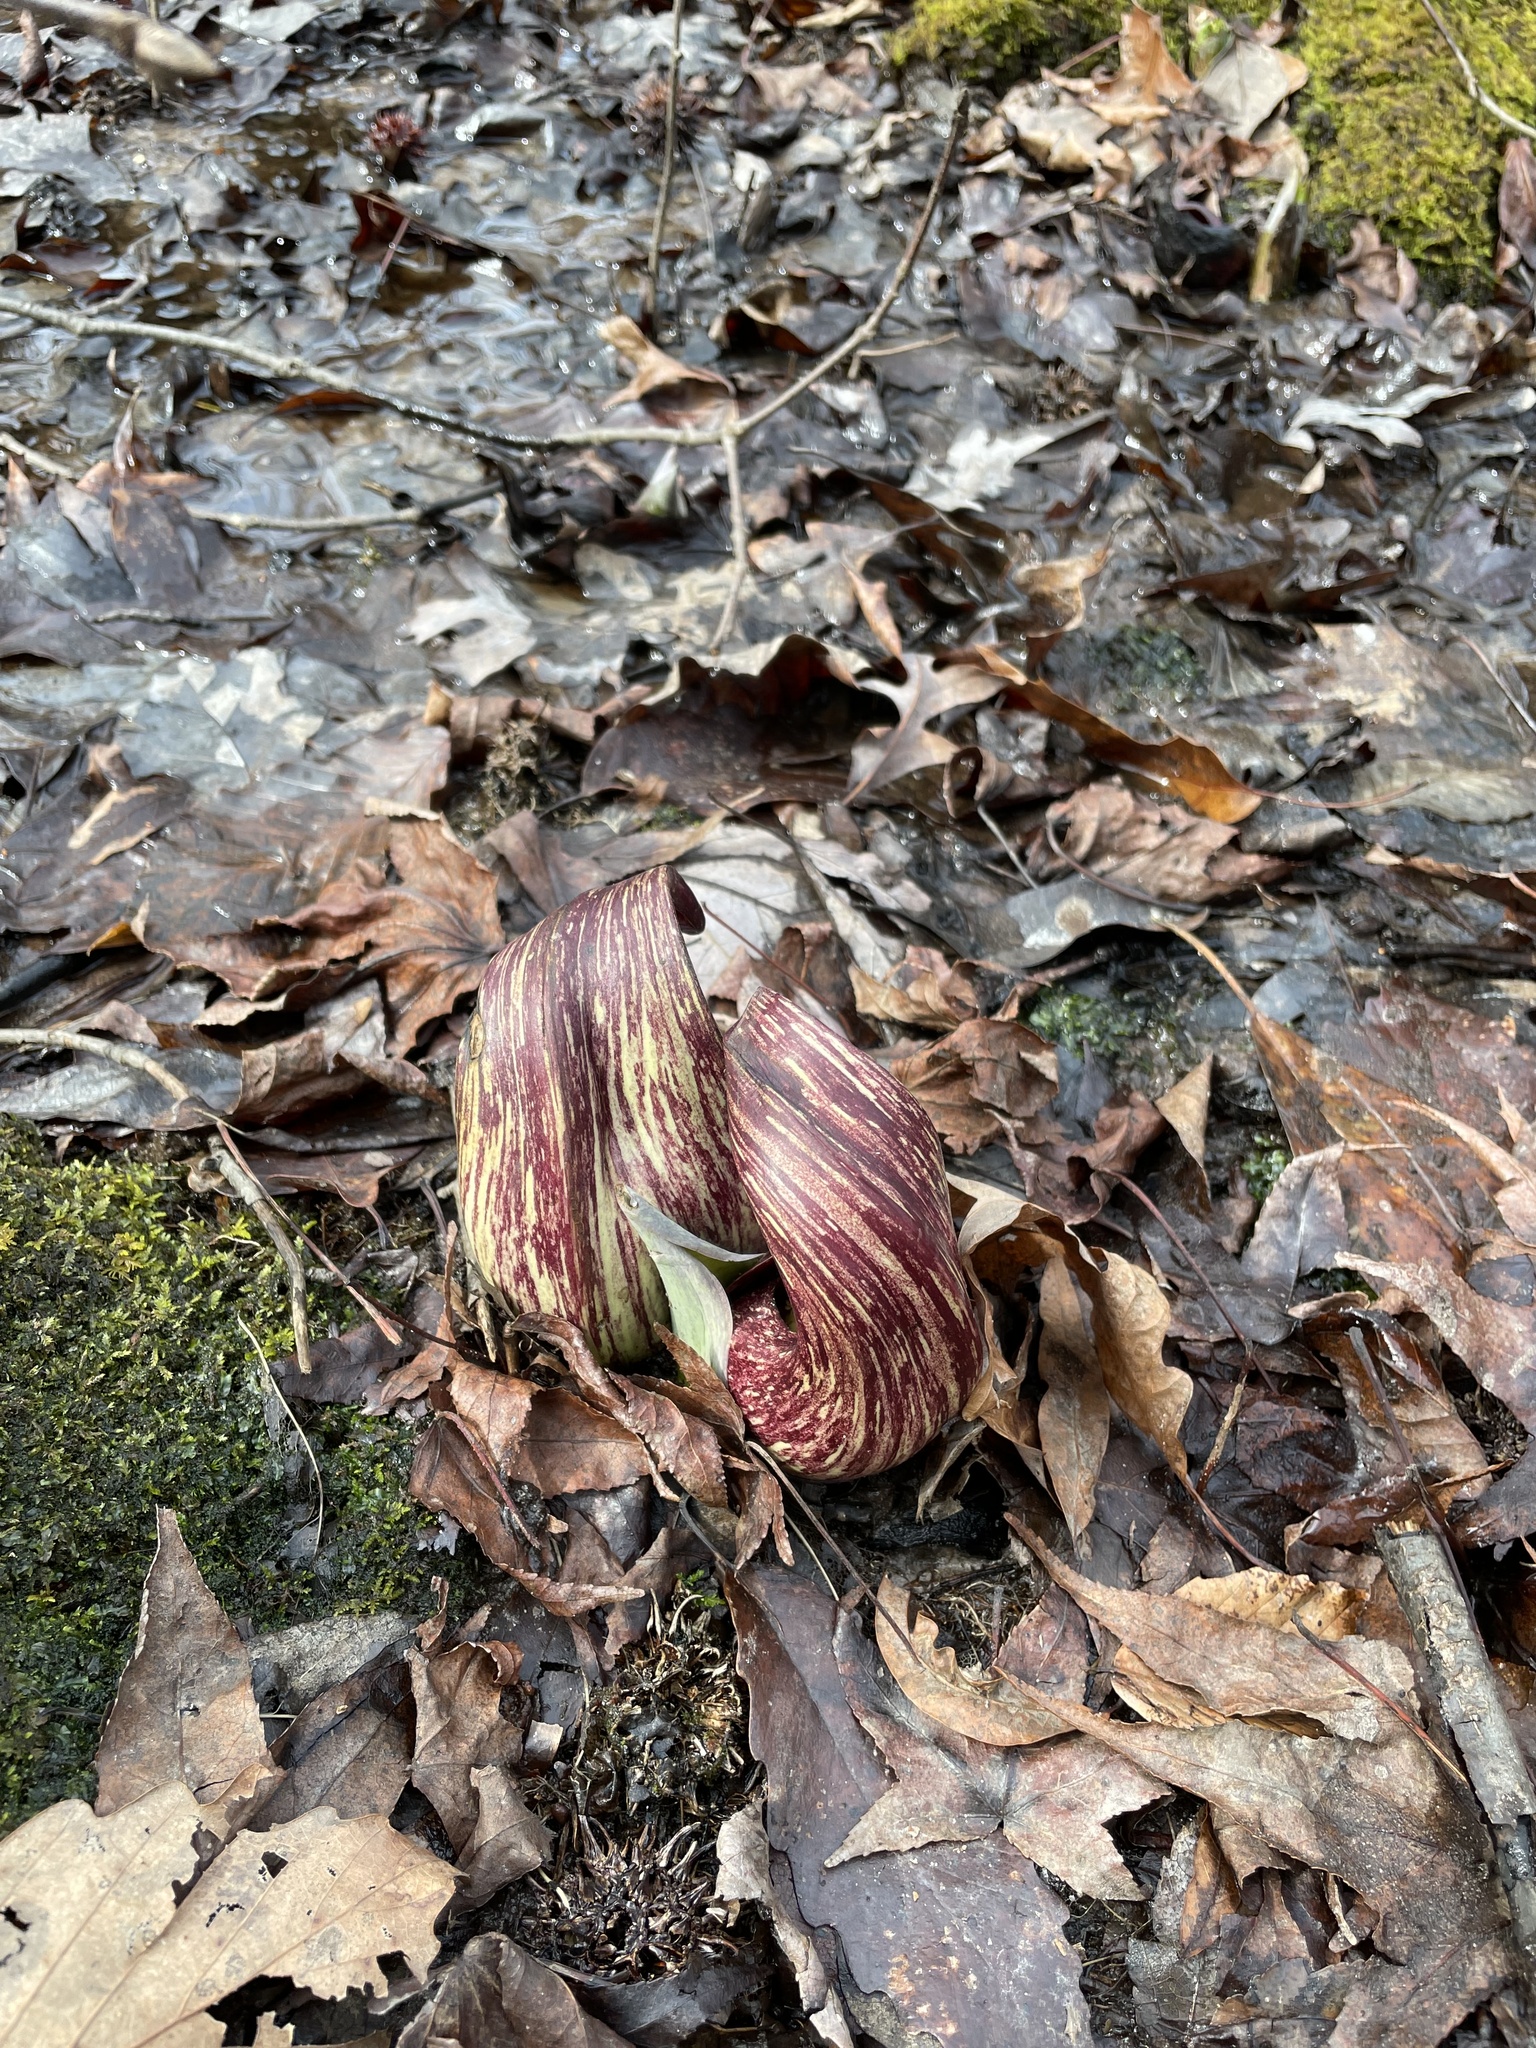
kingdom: Plantae
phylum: Tracheophyta
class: Liliopsida
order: Alismatales
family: Araceae
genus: Symplocarpus
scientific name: Symplocarpus foetidus
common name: Eastern skunk cabbage
